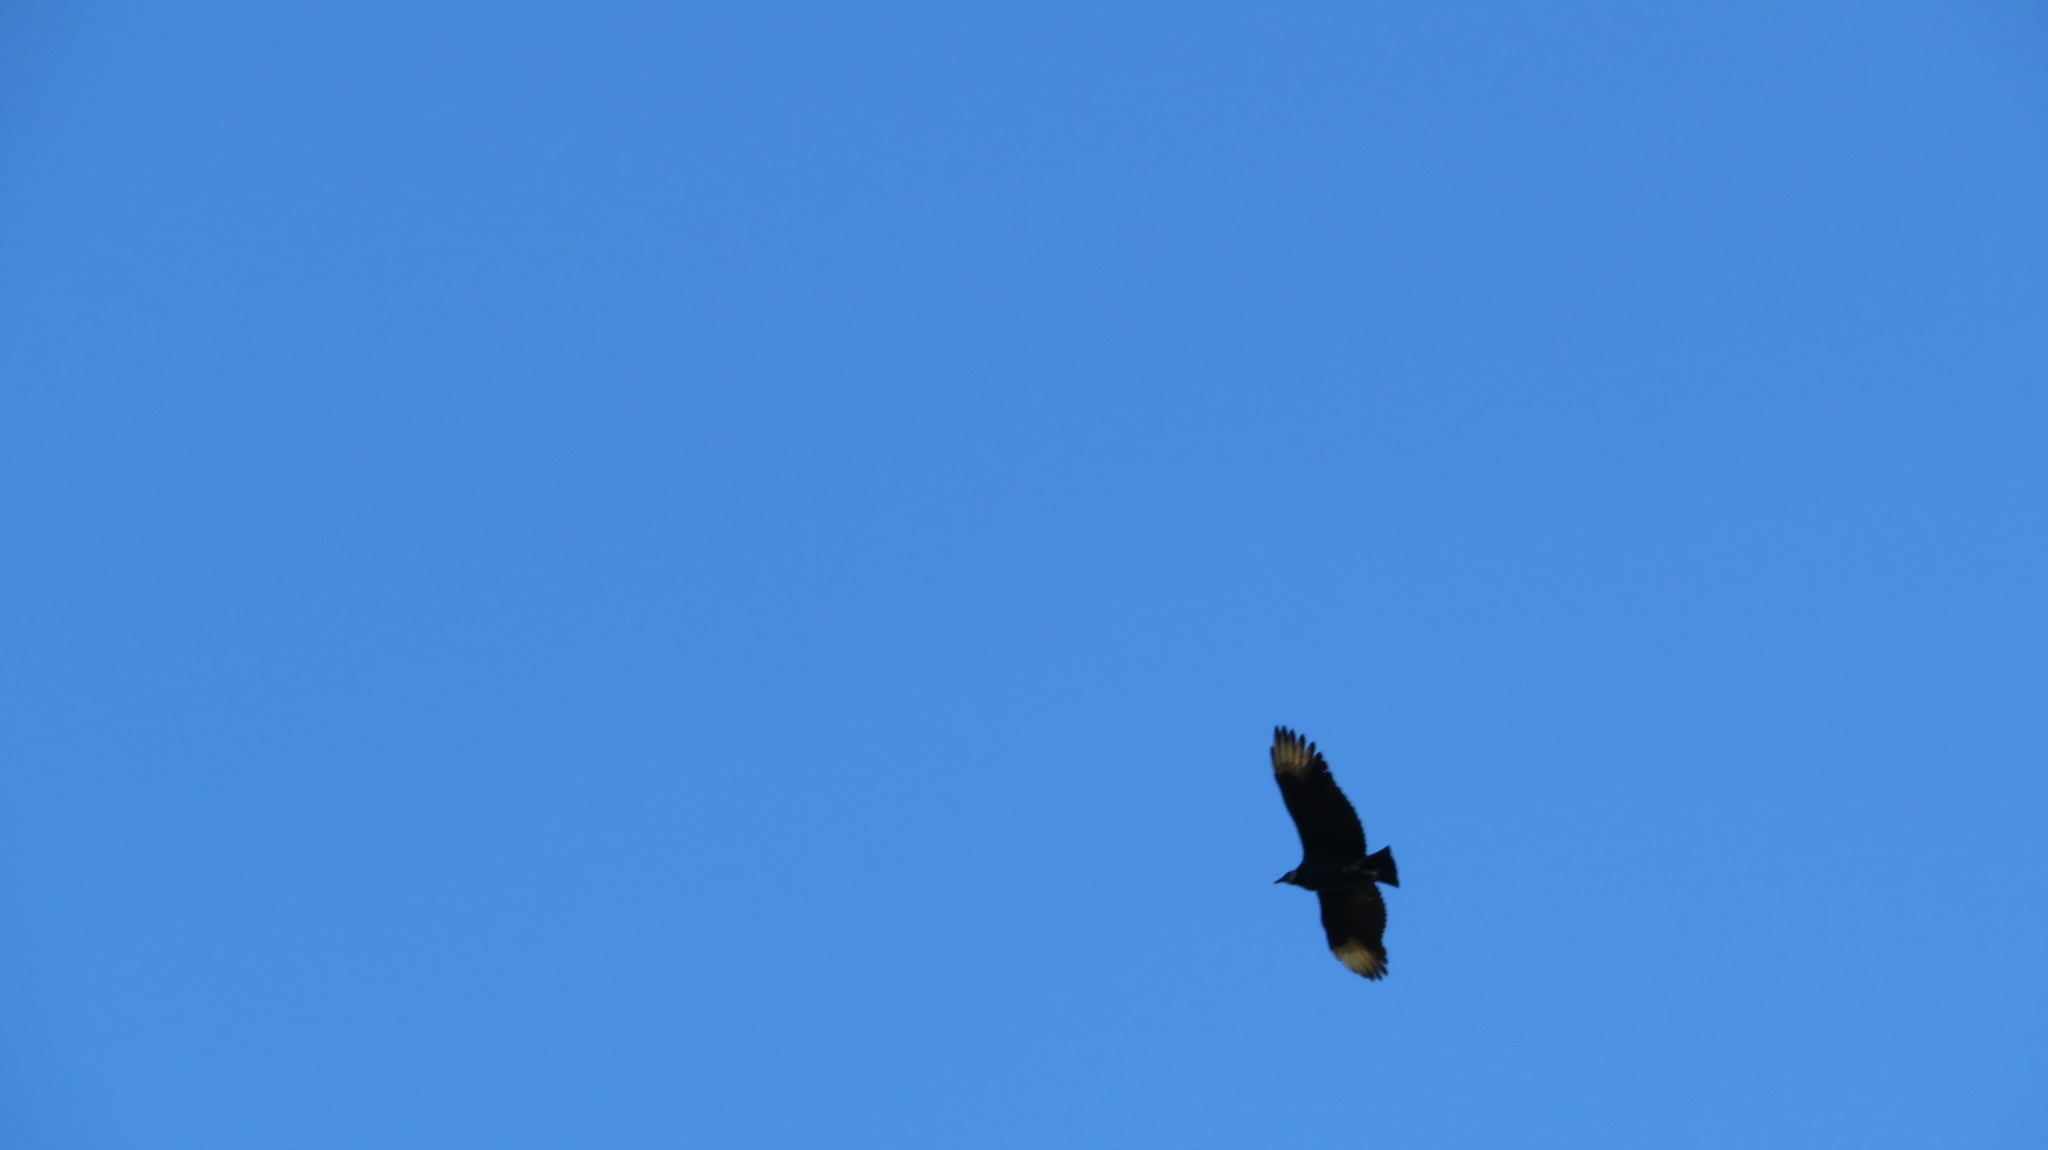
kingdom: Animalia
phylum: Chordata
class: Aves
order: Accipitriformes
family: Cathartidae
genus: Coragyps
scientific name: Coragyps atratus
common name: Black vulture
